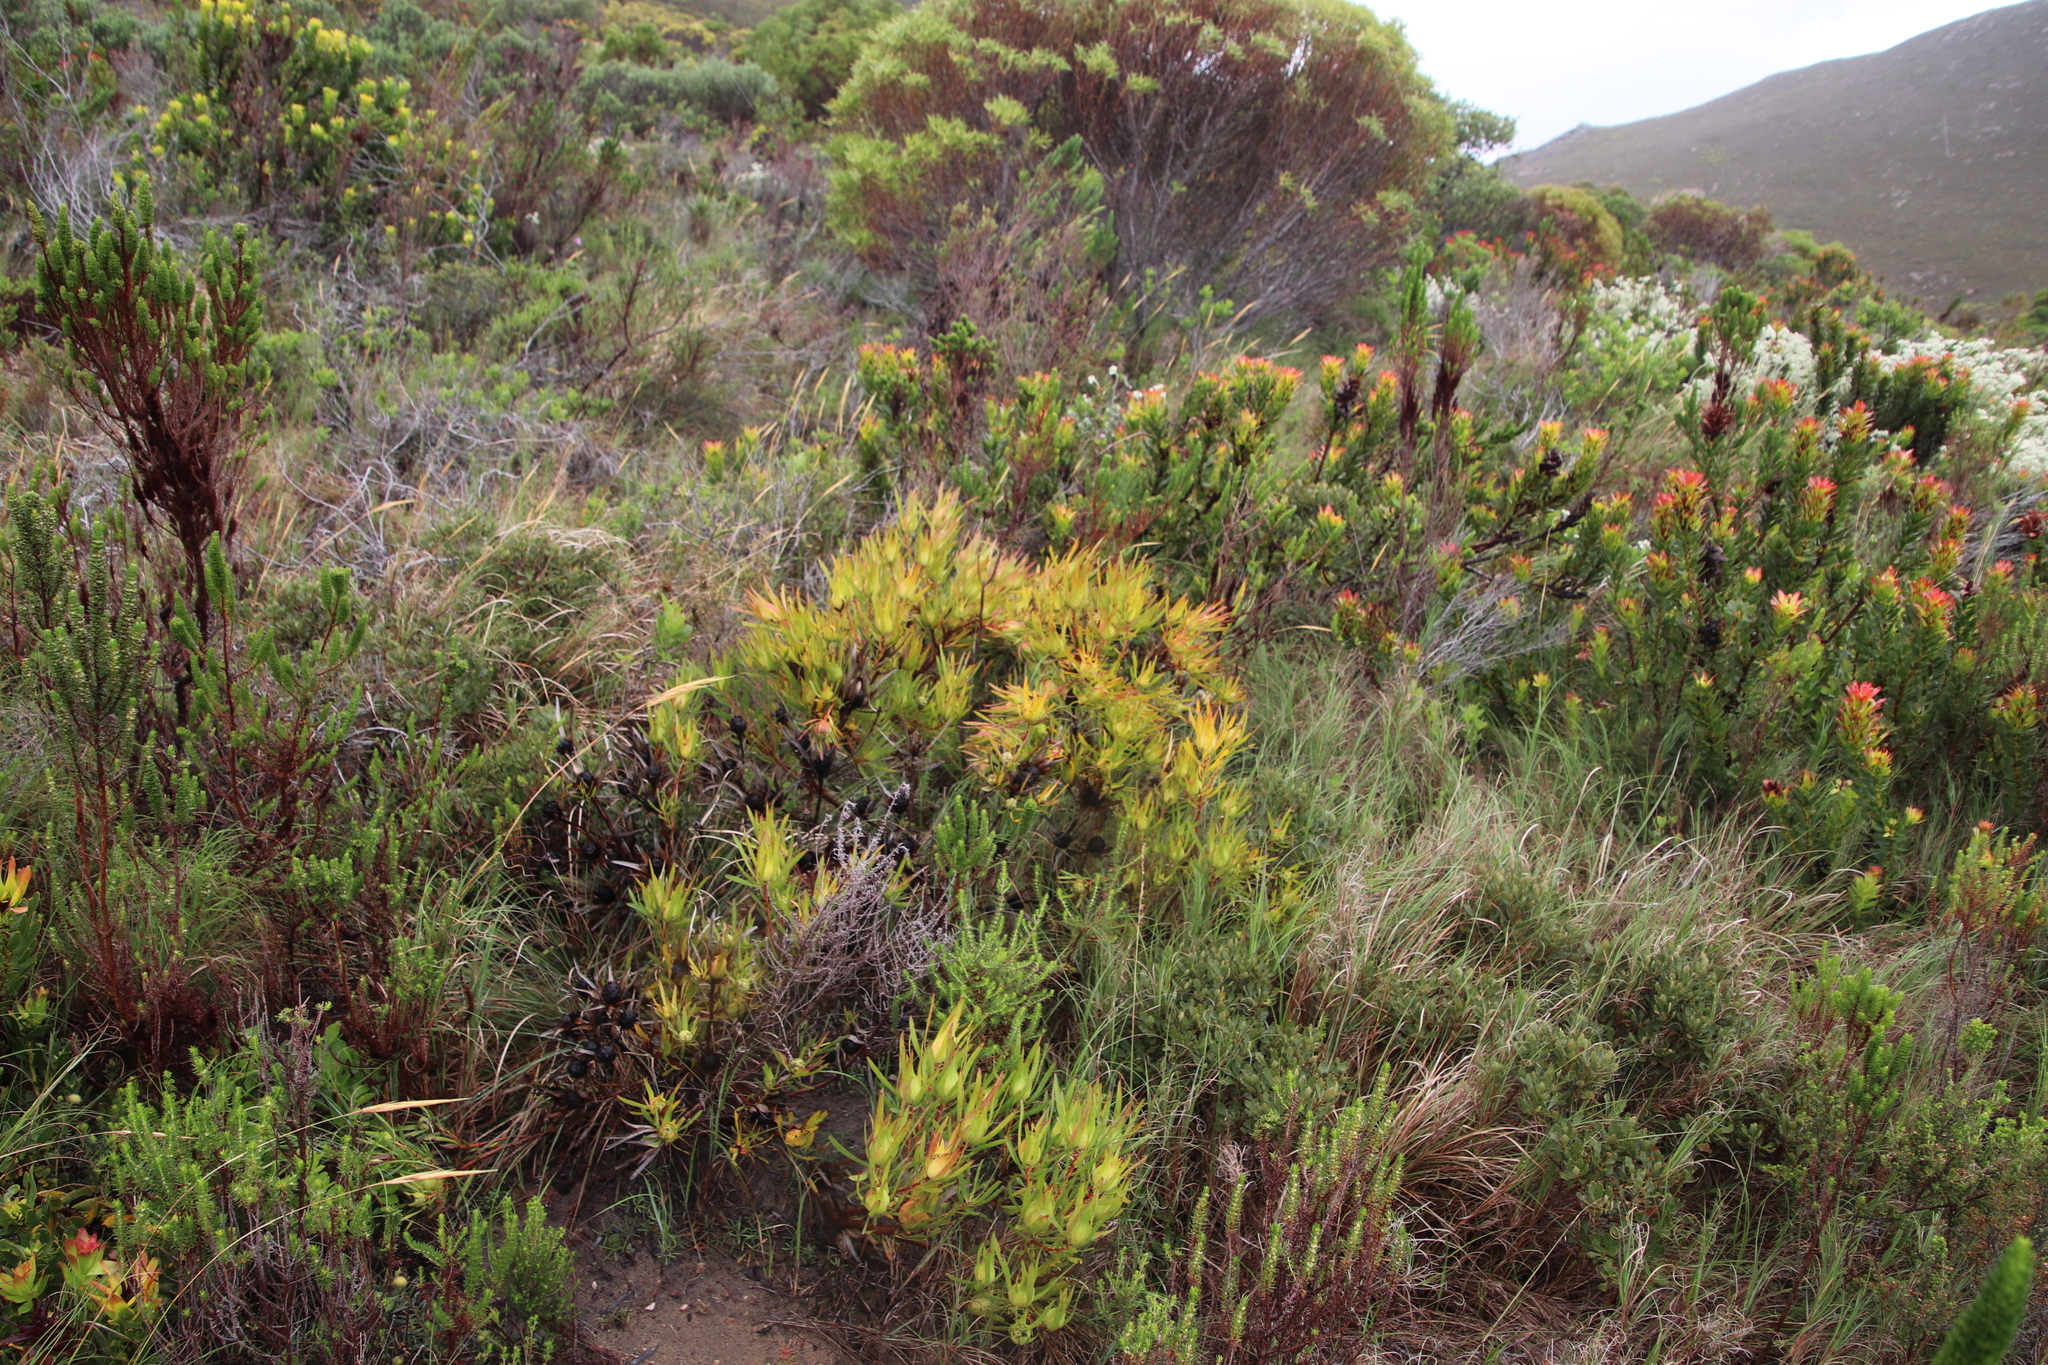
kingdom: Plantae
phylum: Tracheophyta
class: Magnoliopsida
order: Proteales
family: Proteaceae
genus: Leucadendron
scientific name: Leucadendron salignum
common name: Common sunshine conebush
